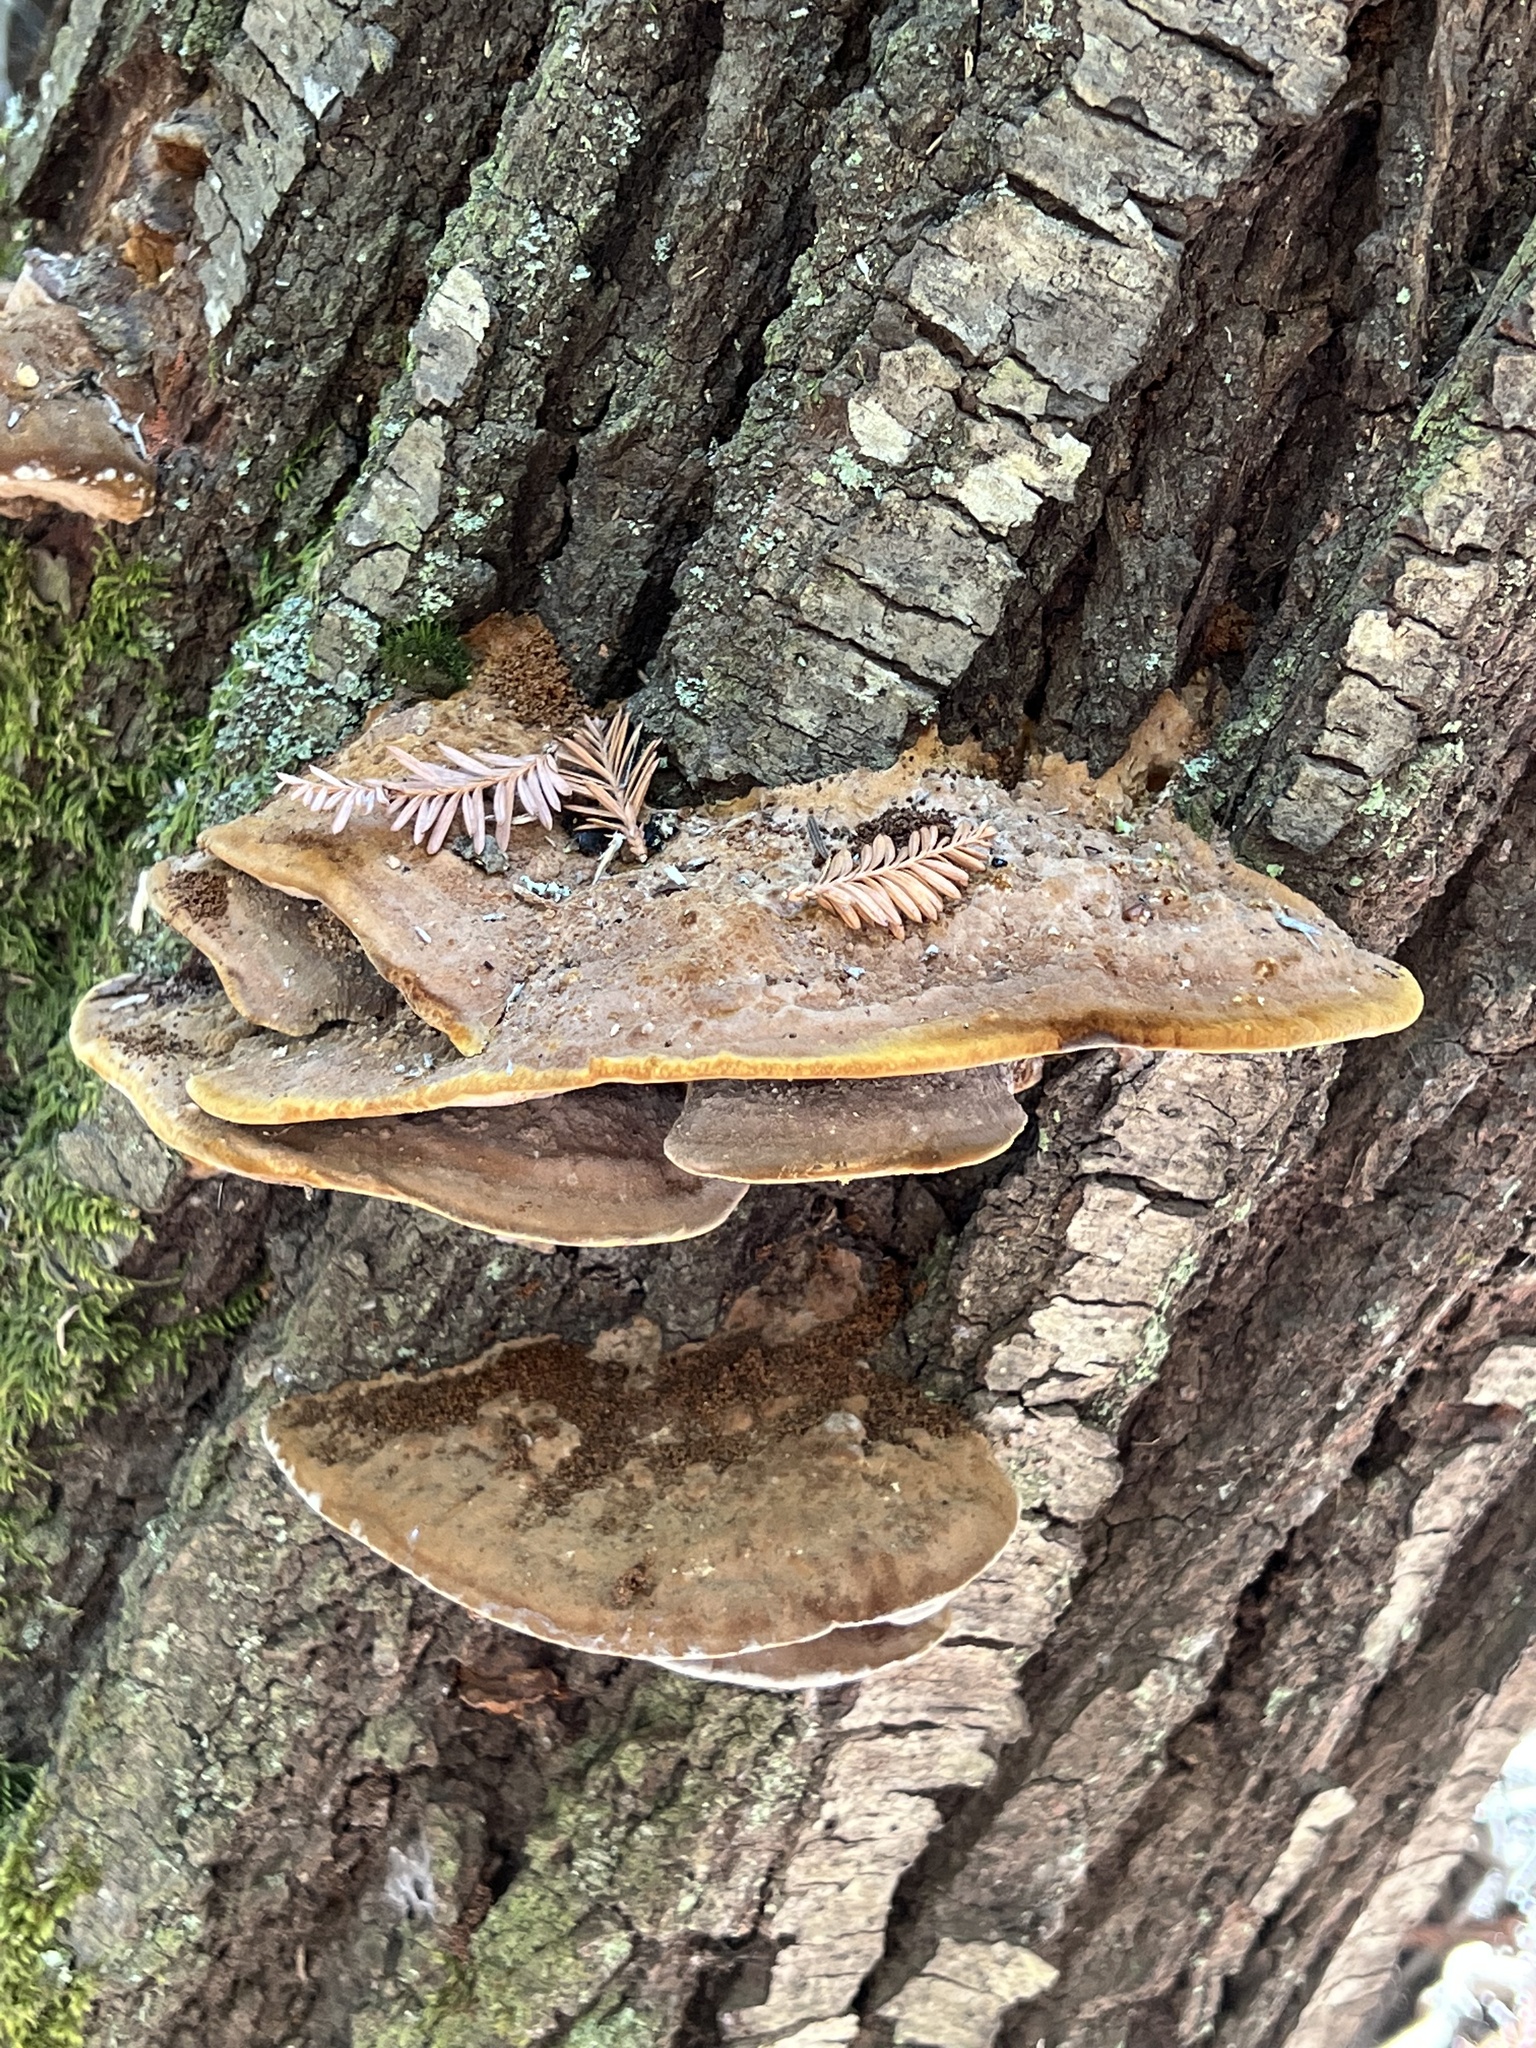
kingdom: Fungi
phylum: Basidiomycota
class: Agaricomycetes
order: Hymenochaetales
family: Hymenochaetaceae
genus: Phellinus
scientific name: Phellinus gilvus
